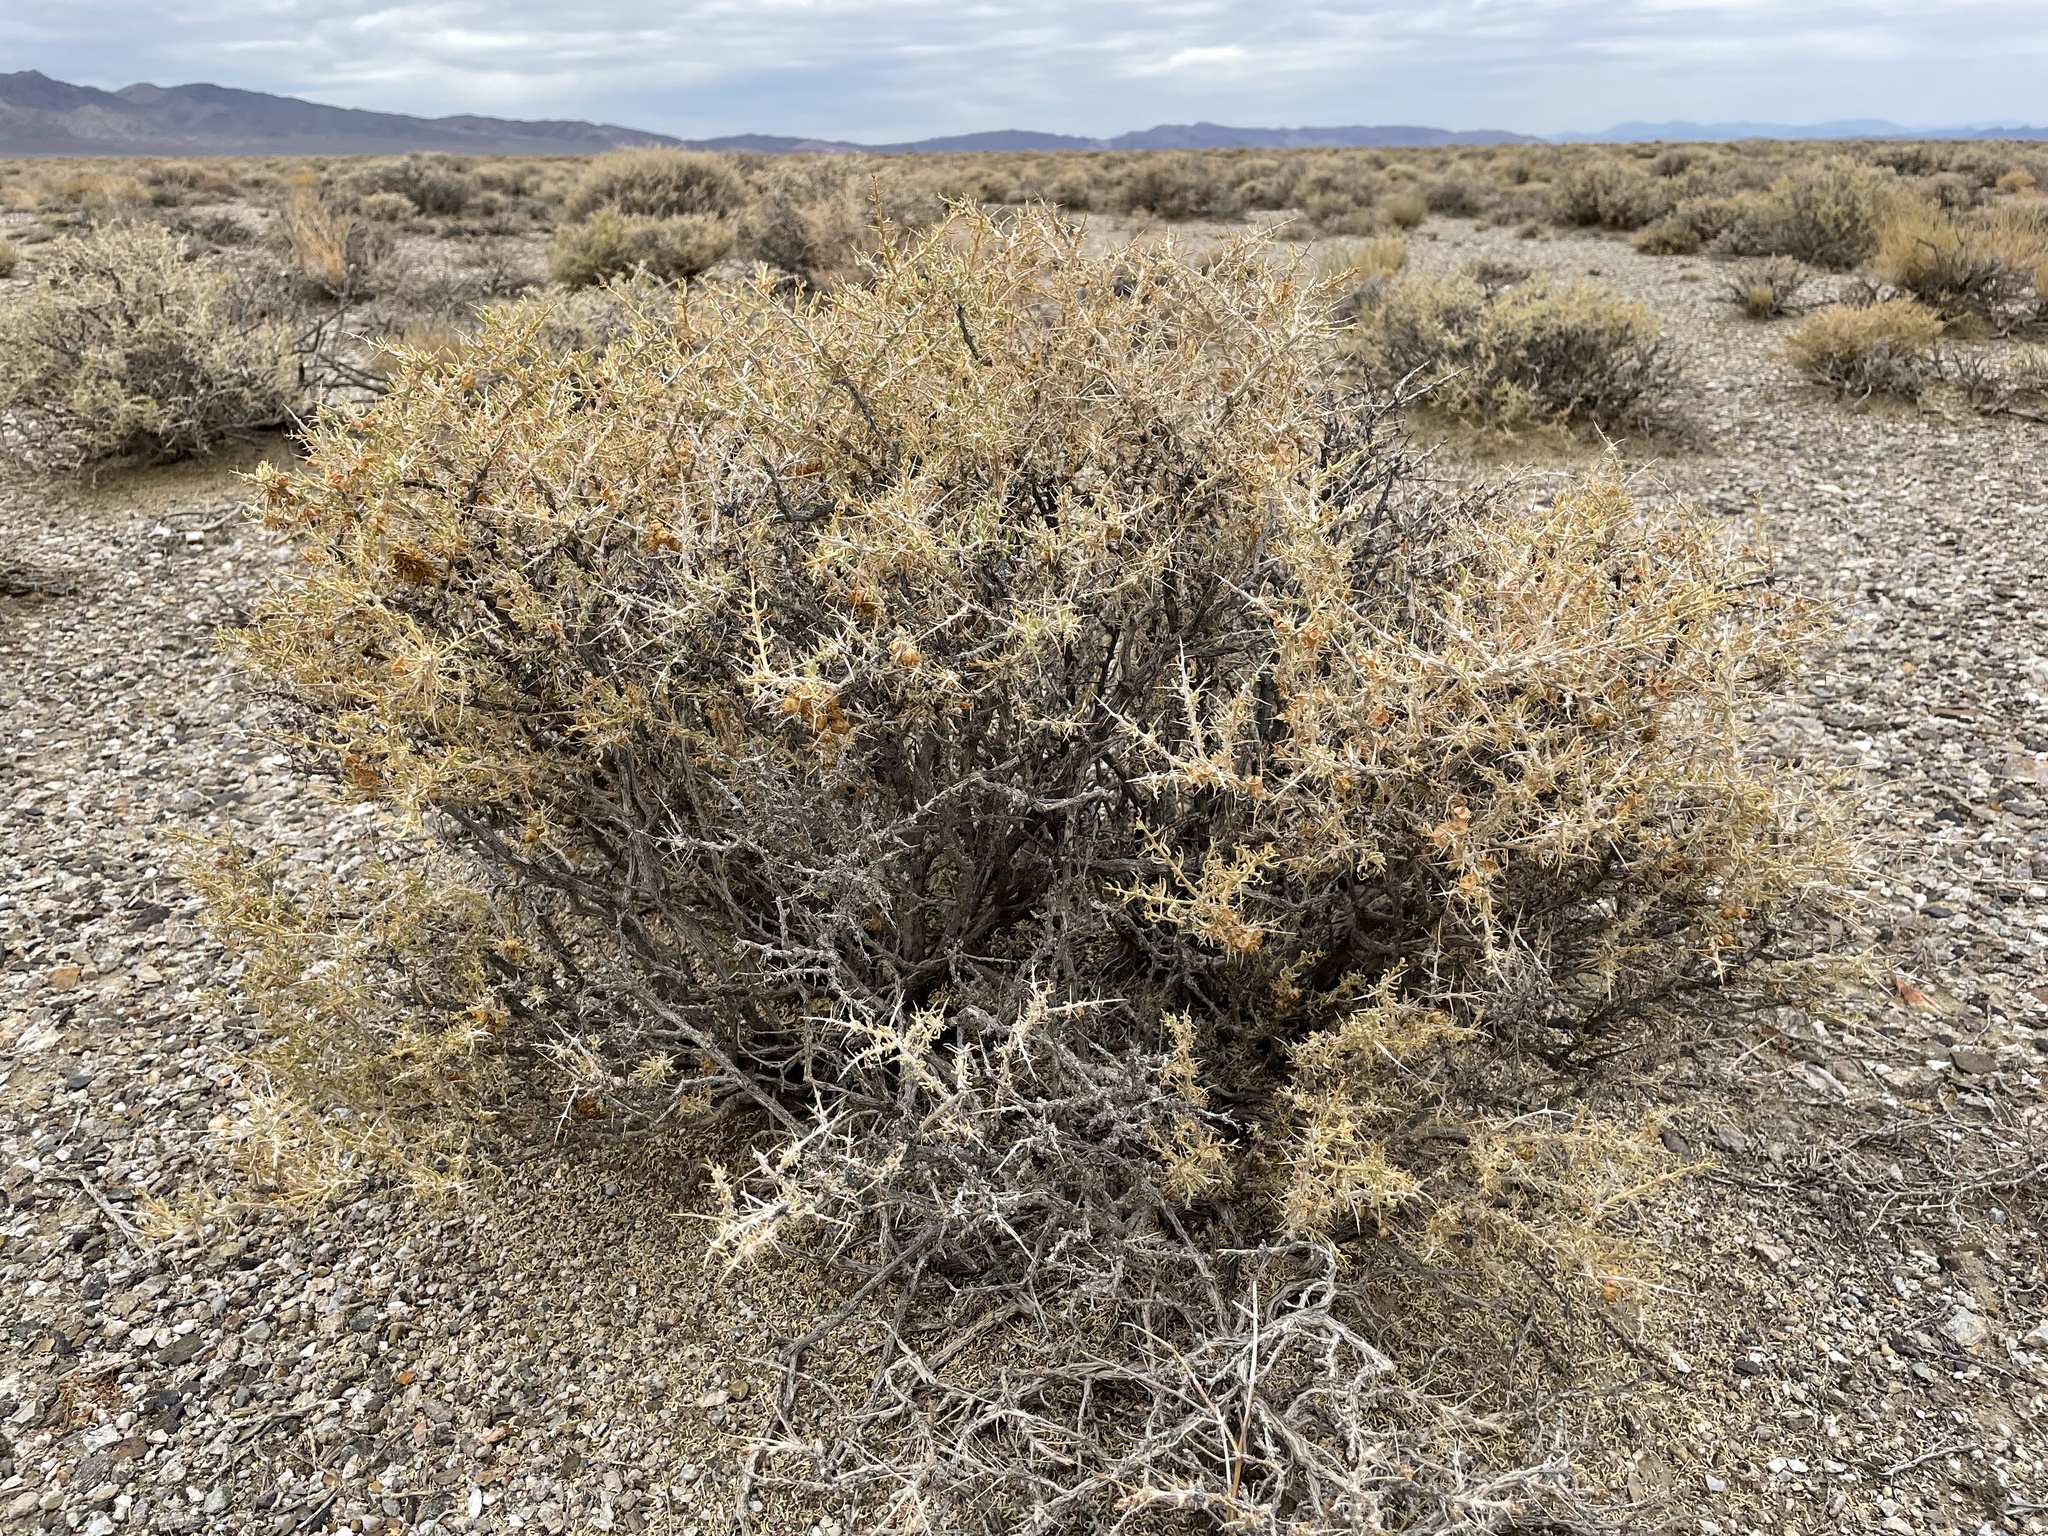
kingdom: Plantae
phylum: Tracheophyta
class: Magnoliopsida
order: Caryophyllales
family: Sarcobataceae
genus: Sarcobatus
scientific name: Sarcobatus baileyi
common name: Bailey greasewood
